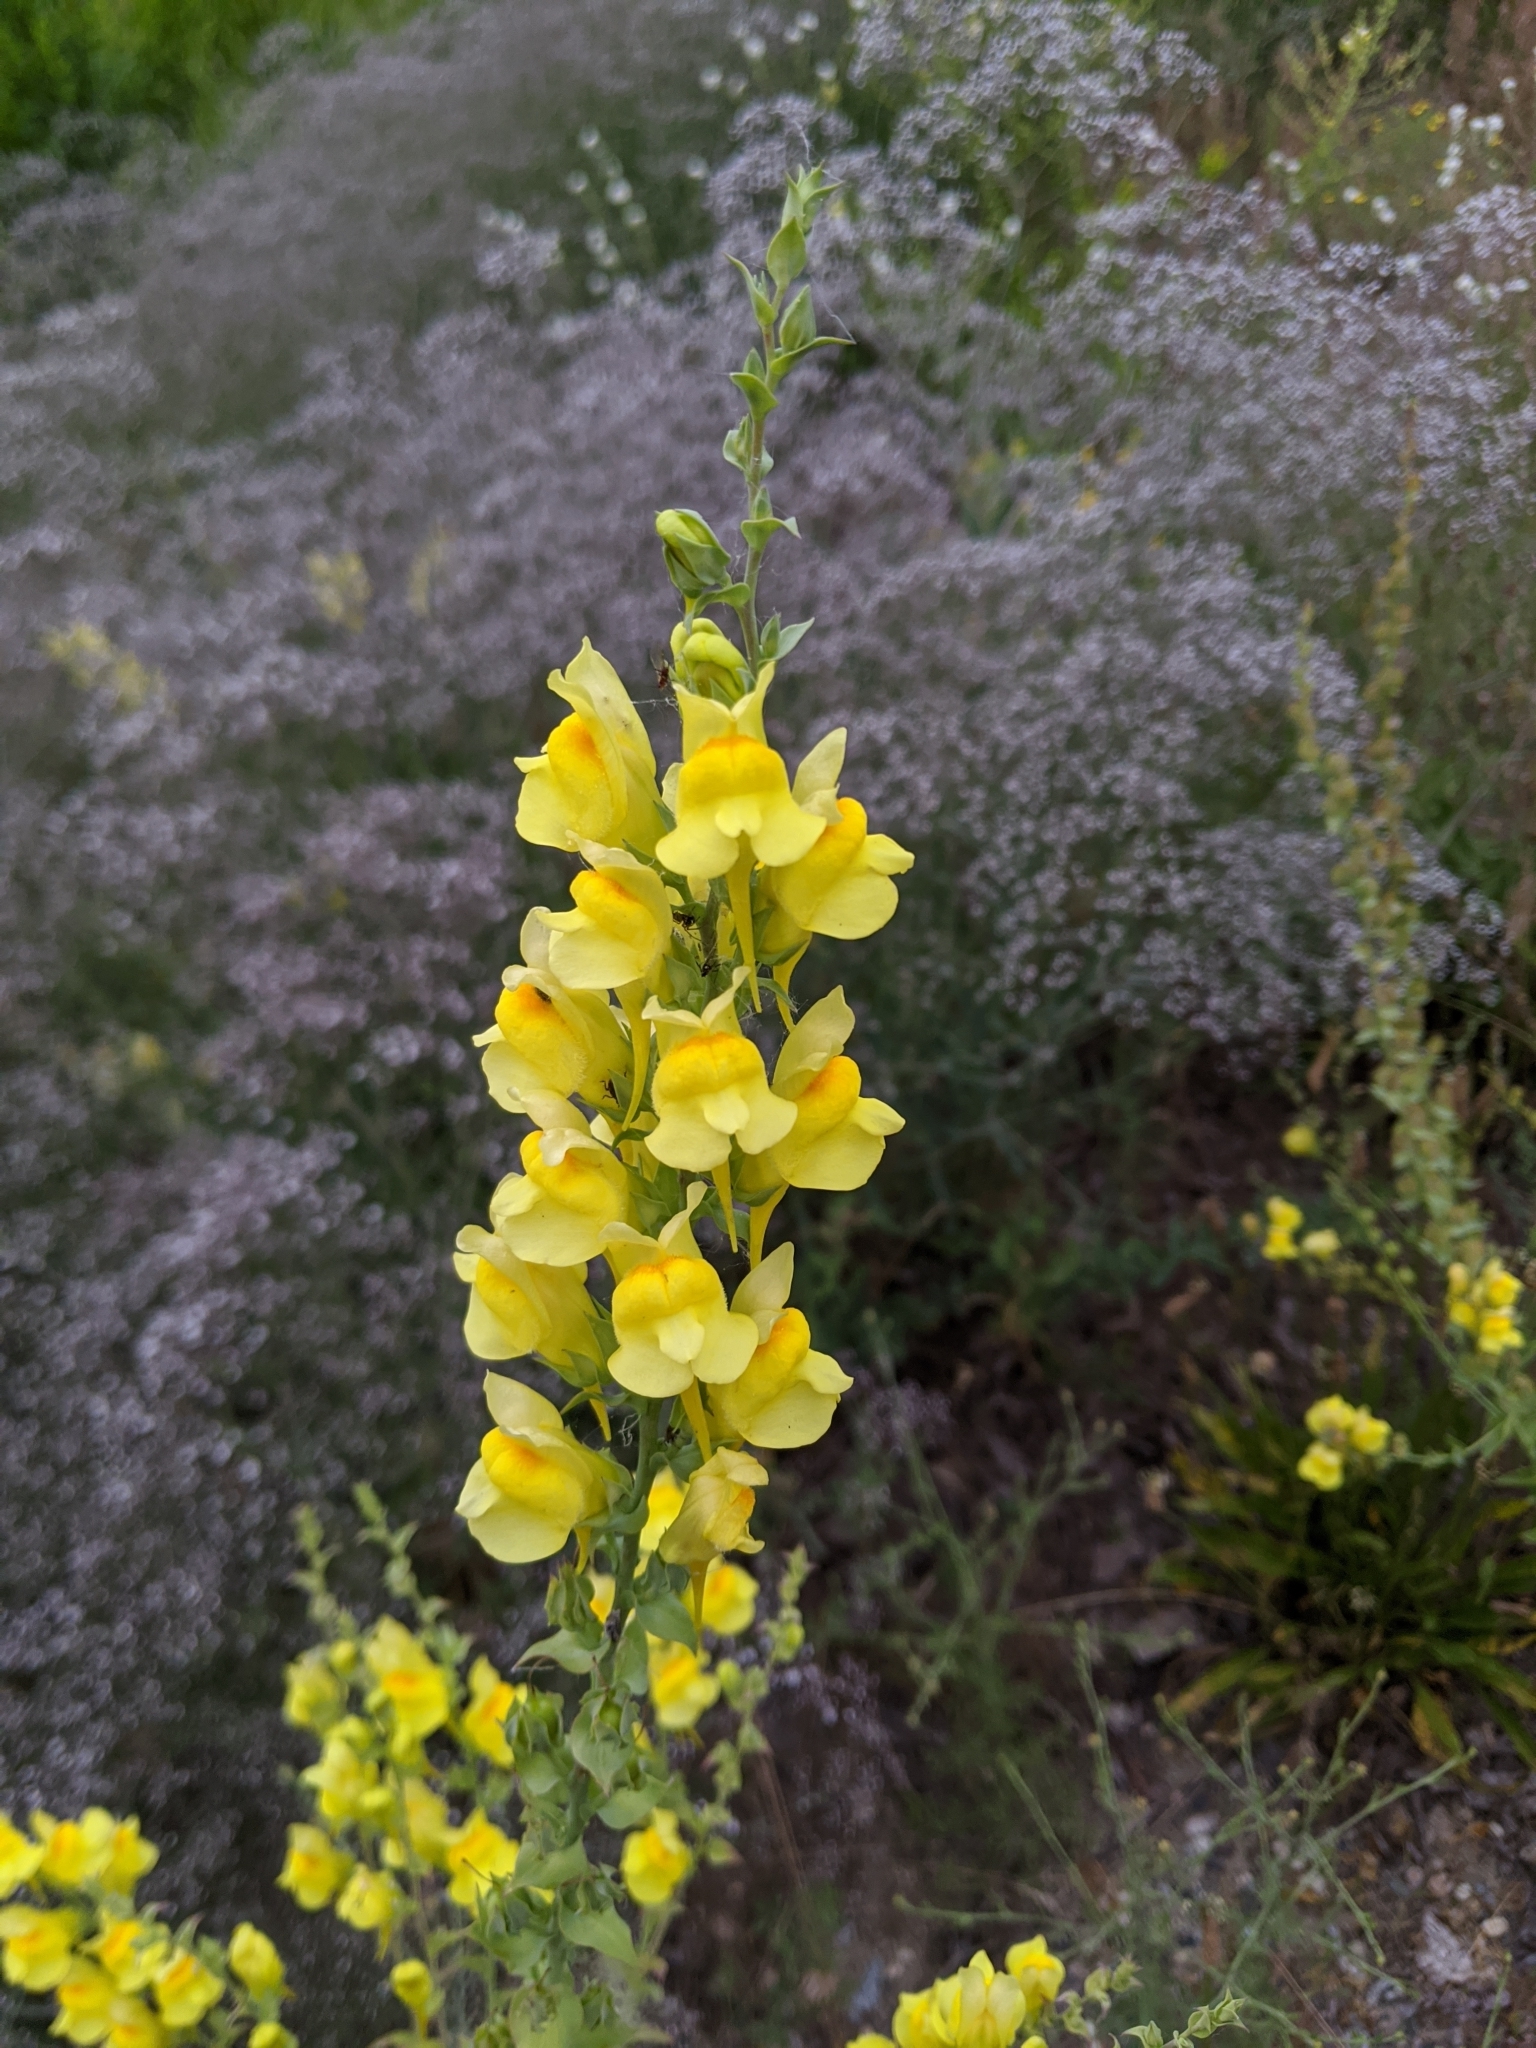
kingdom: Plantae
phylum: Tracheophyta
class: Magnoliopsida
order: Lamiales
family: Plantaginaceae
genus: Linaria
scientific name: Linaria dalmatica
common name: Dalmatian toadflax
